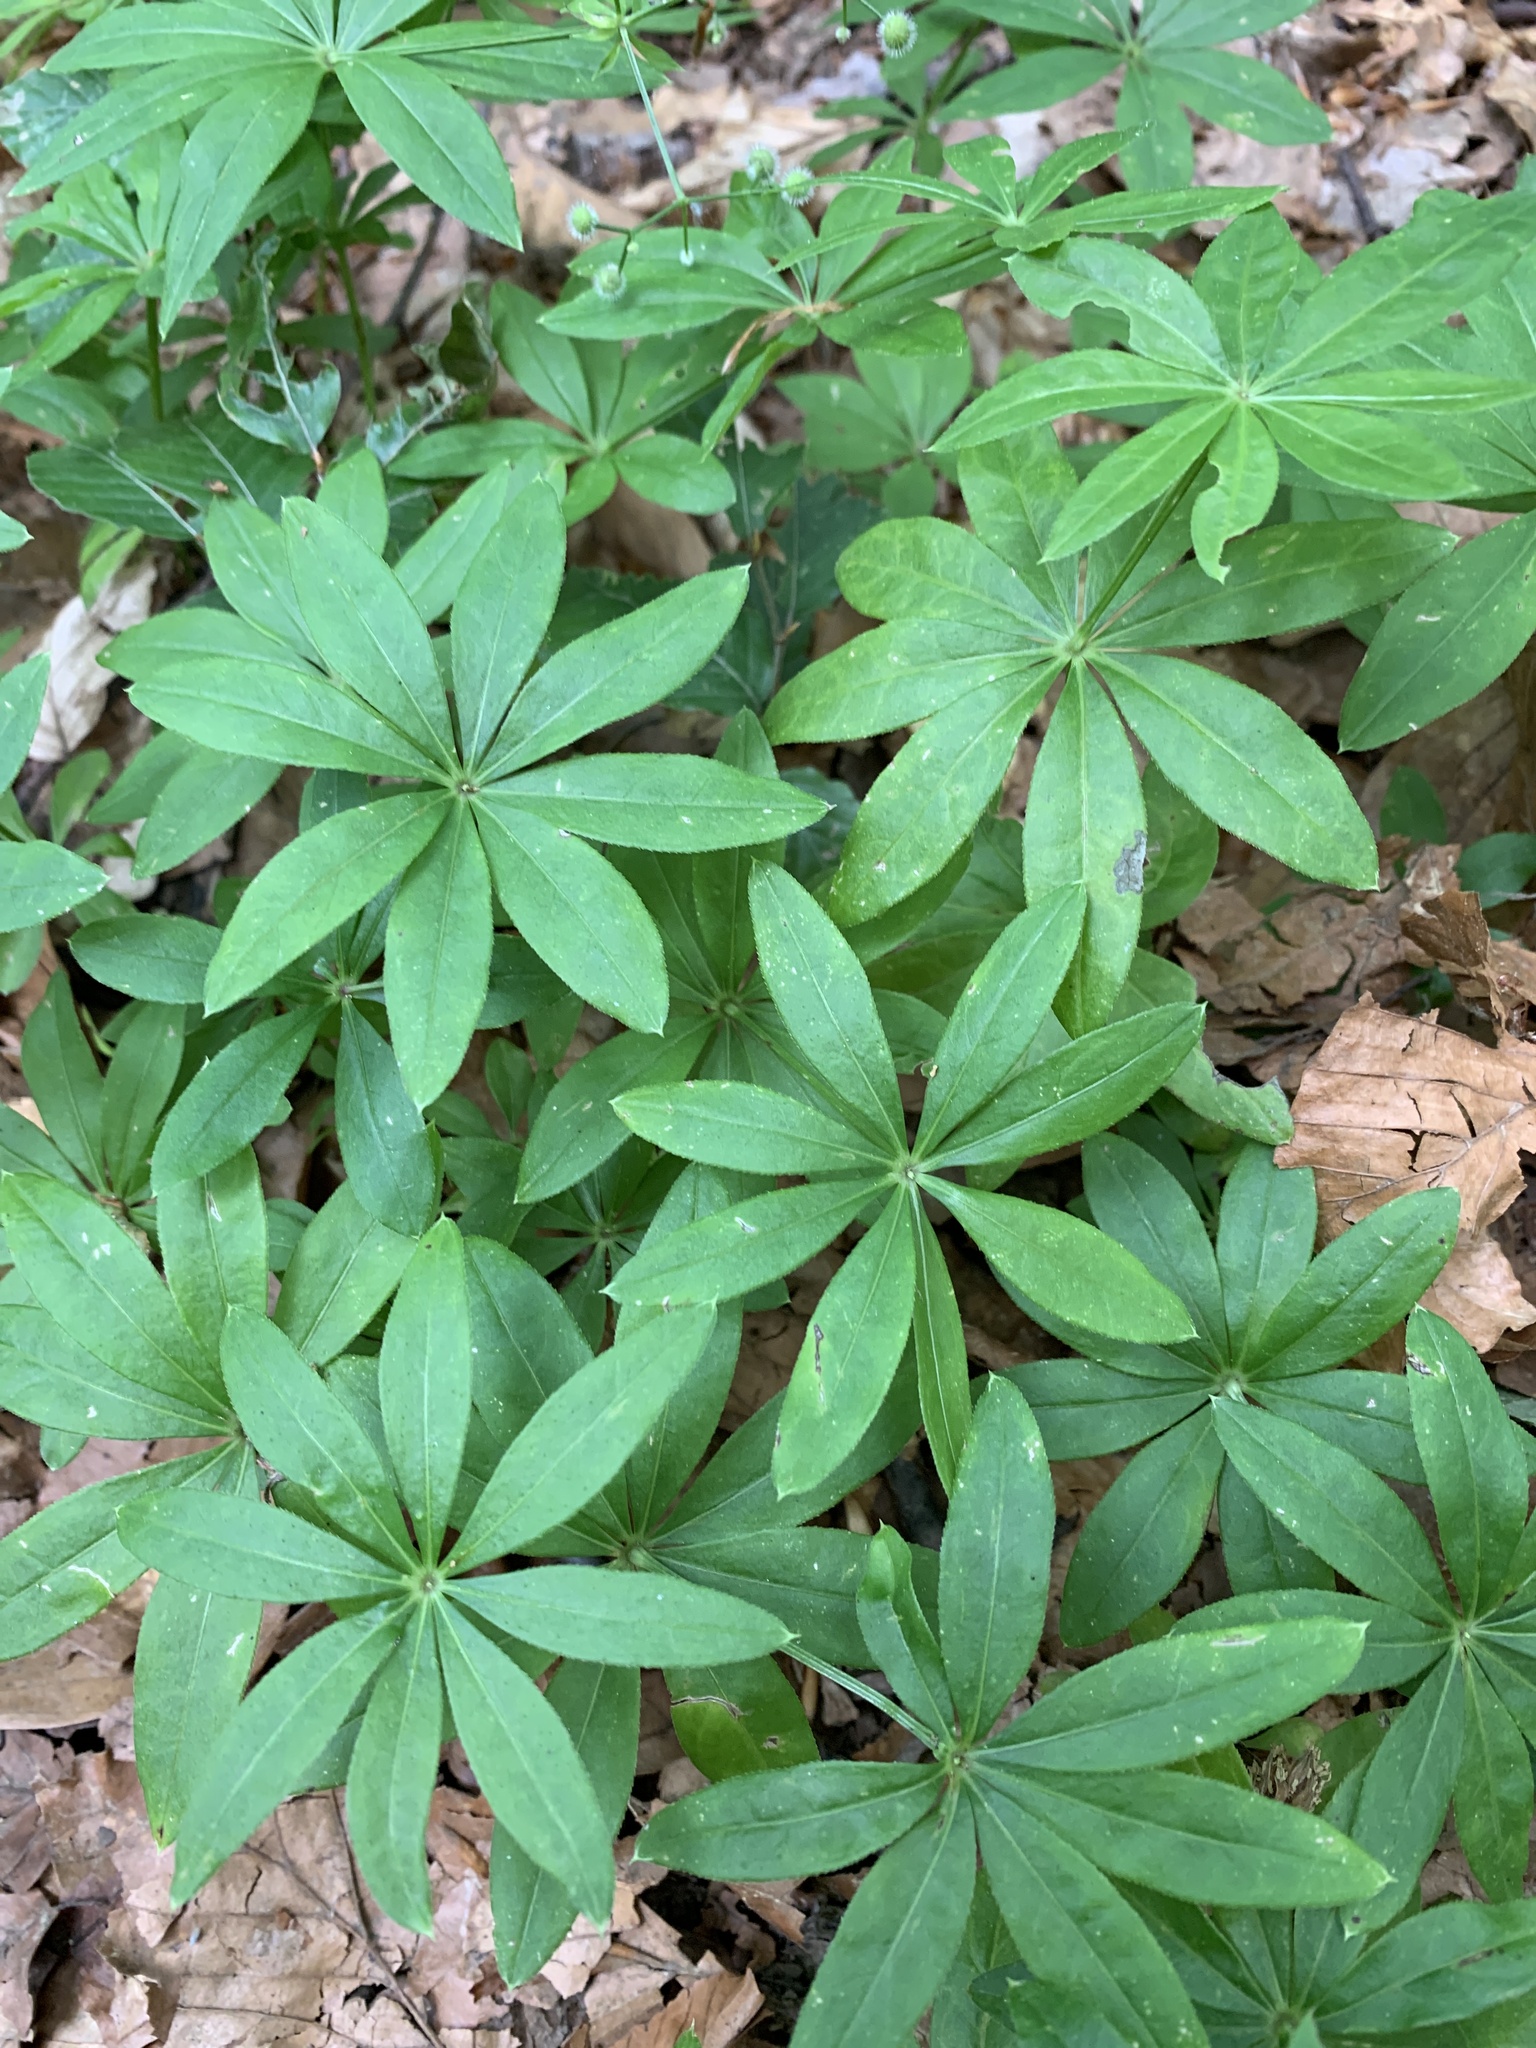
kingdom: Plantae
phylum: Tracheophyta
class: Magnoliopsida
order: Gentianales
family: Rubiaceae
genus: Galium
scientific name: Galium odoratum
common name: Sweet woodruff
